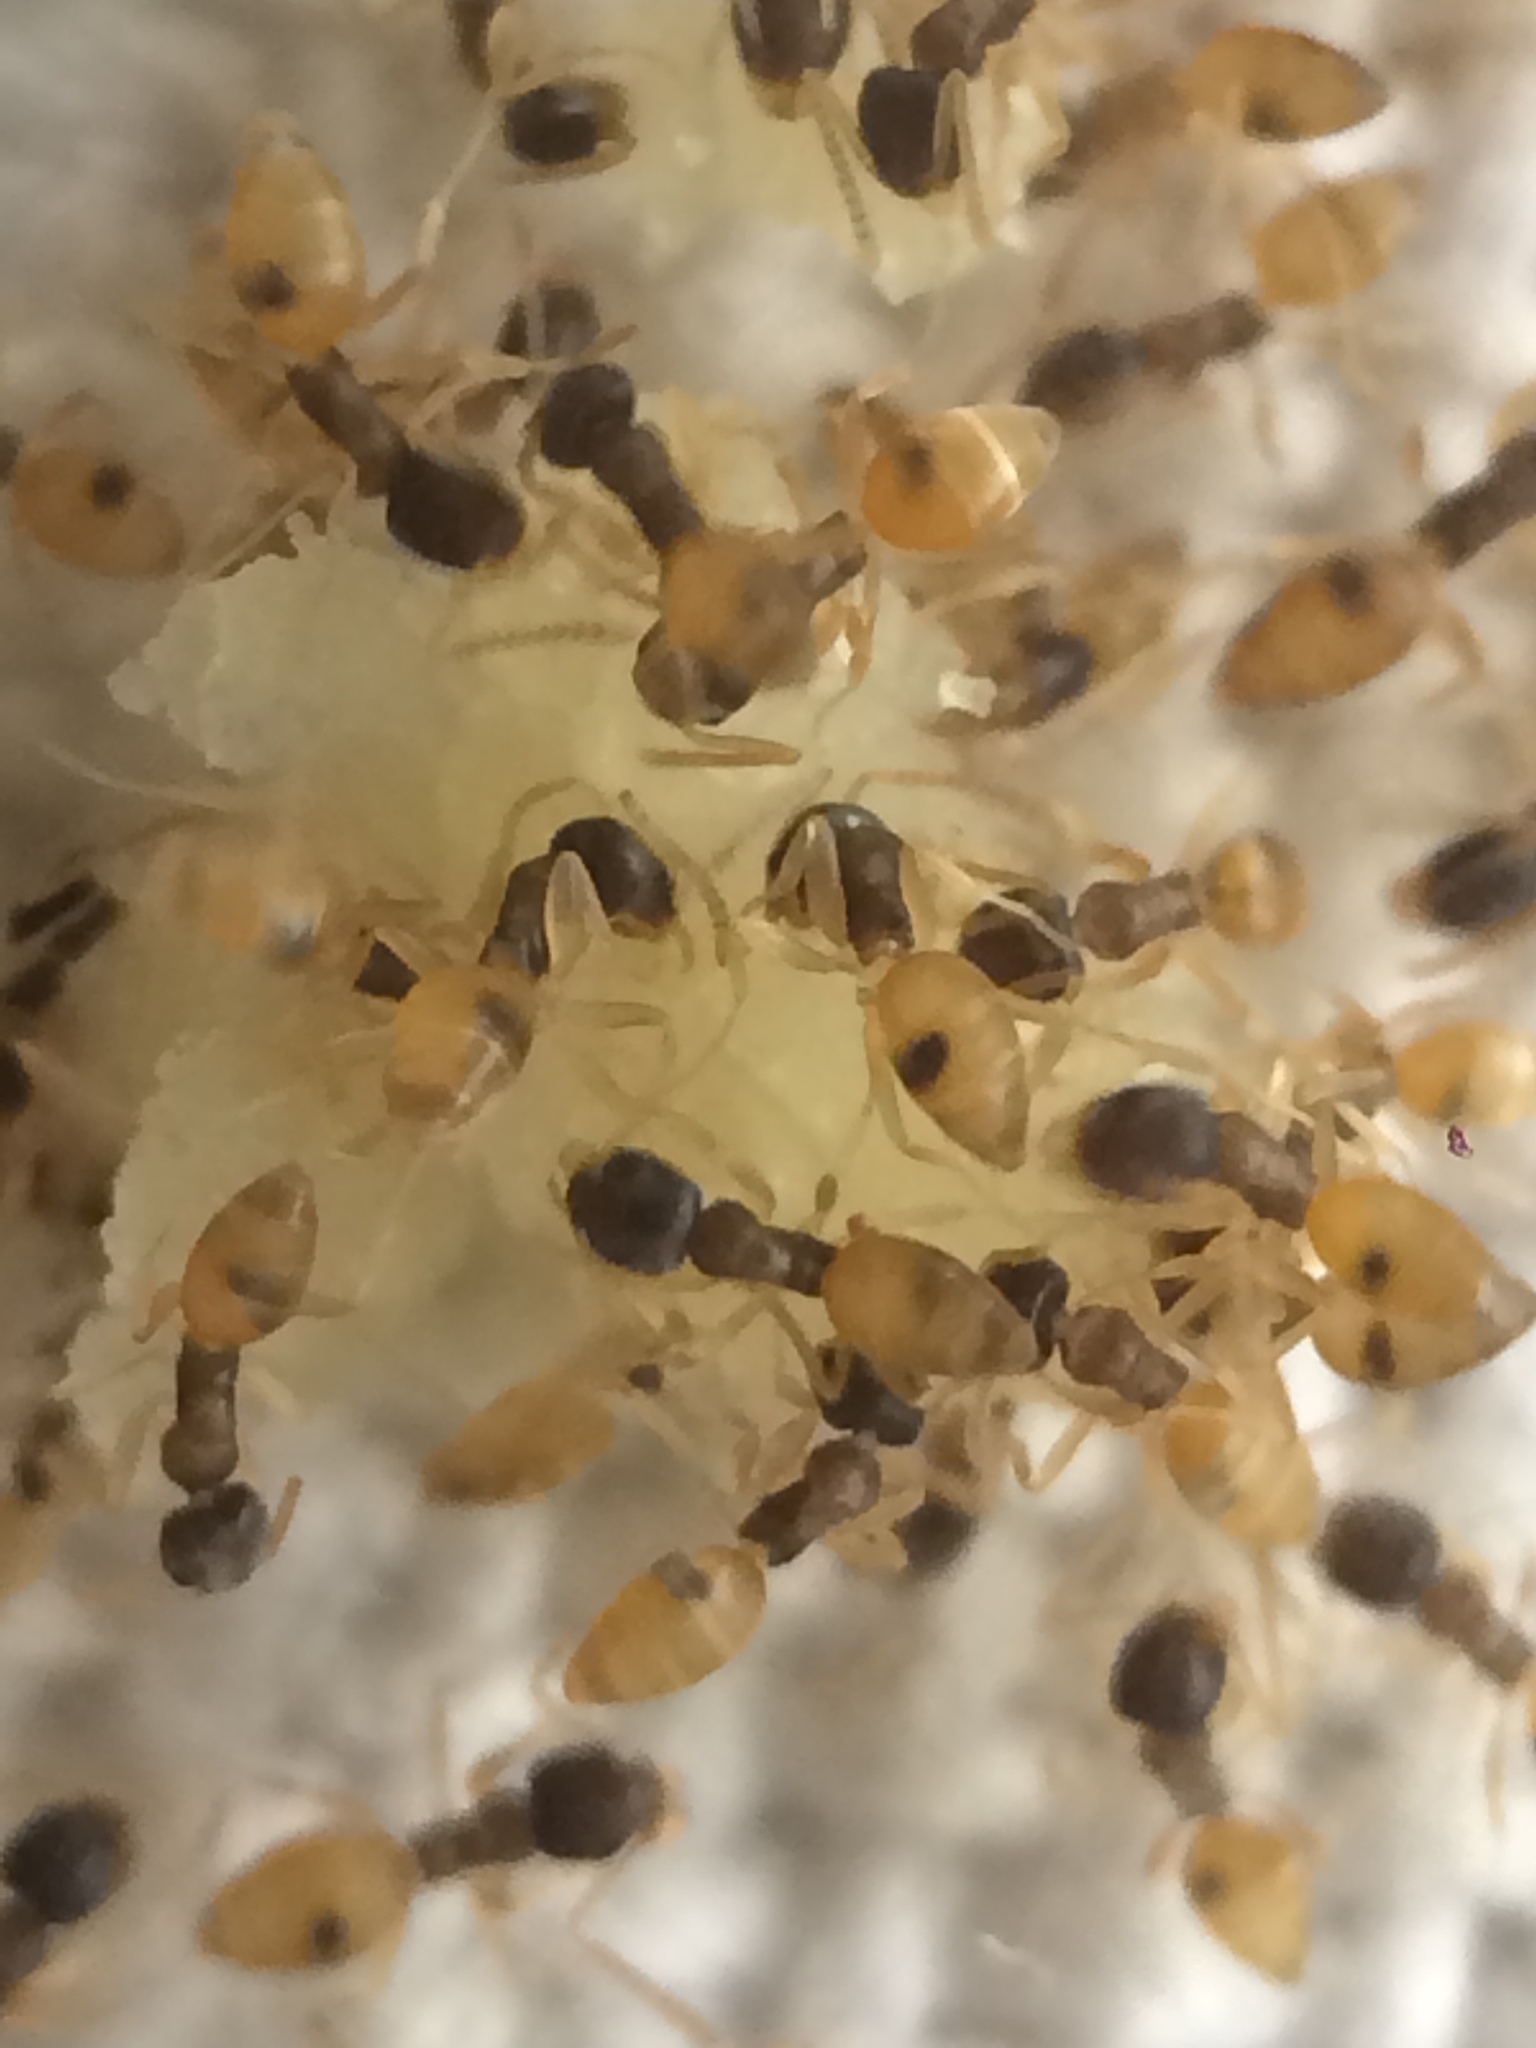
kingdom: Animalia
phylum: Arthropoda
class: Insecta
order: Hymenoptera
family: Formicidae
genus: Tapinoma
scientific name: Tapinoma melanocephalum
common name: Ghost ant
